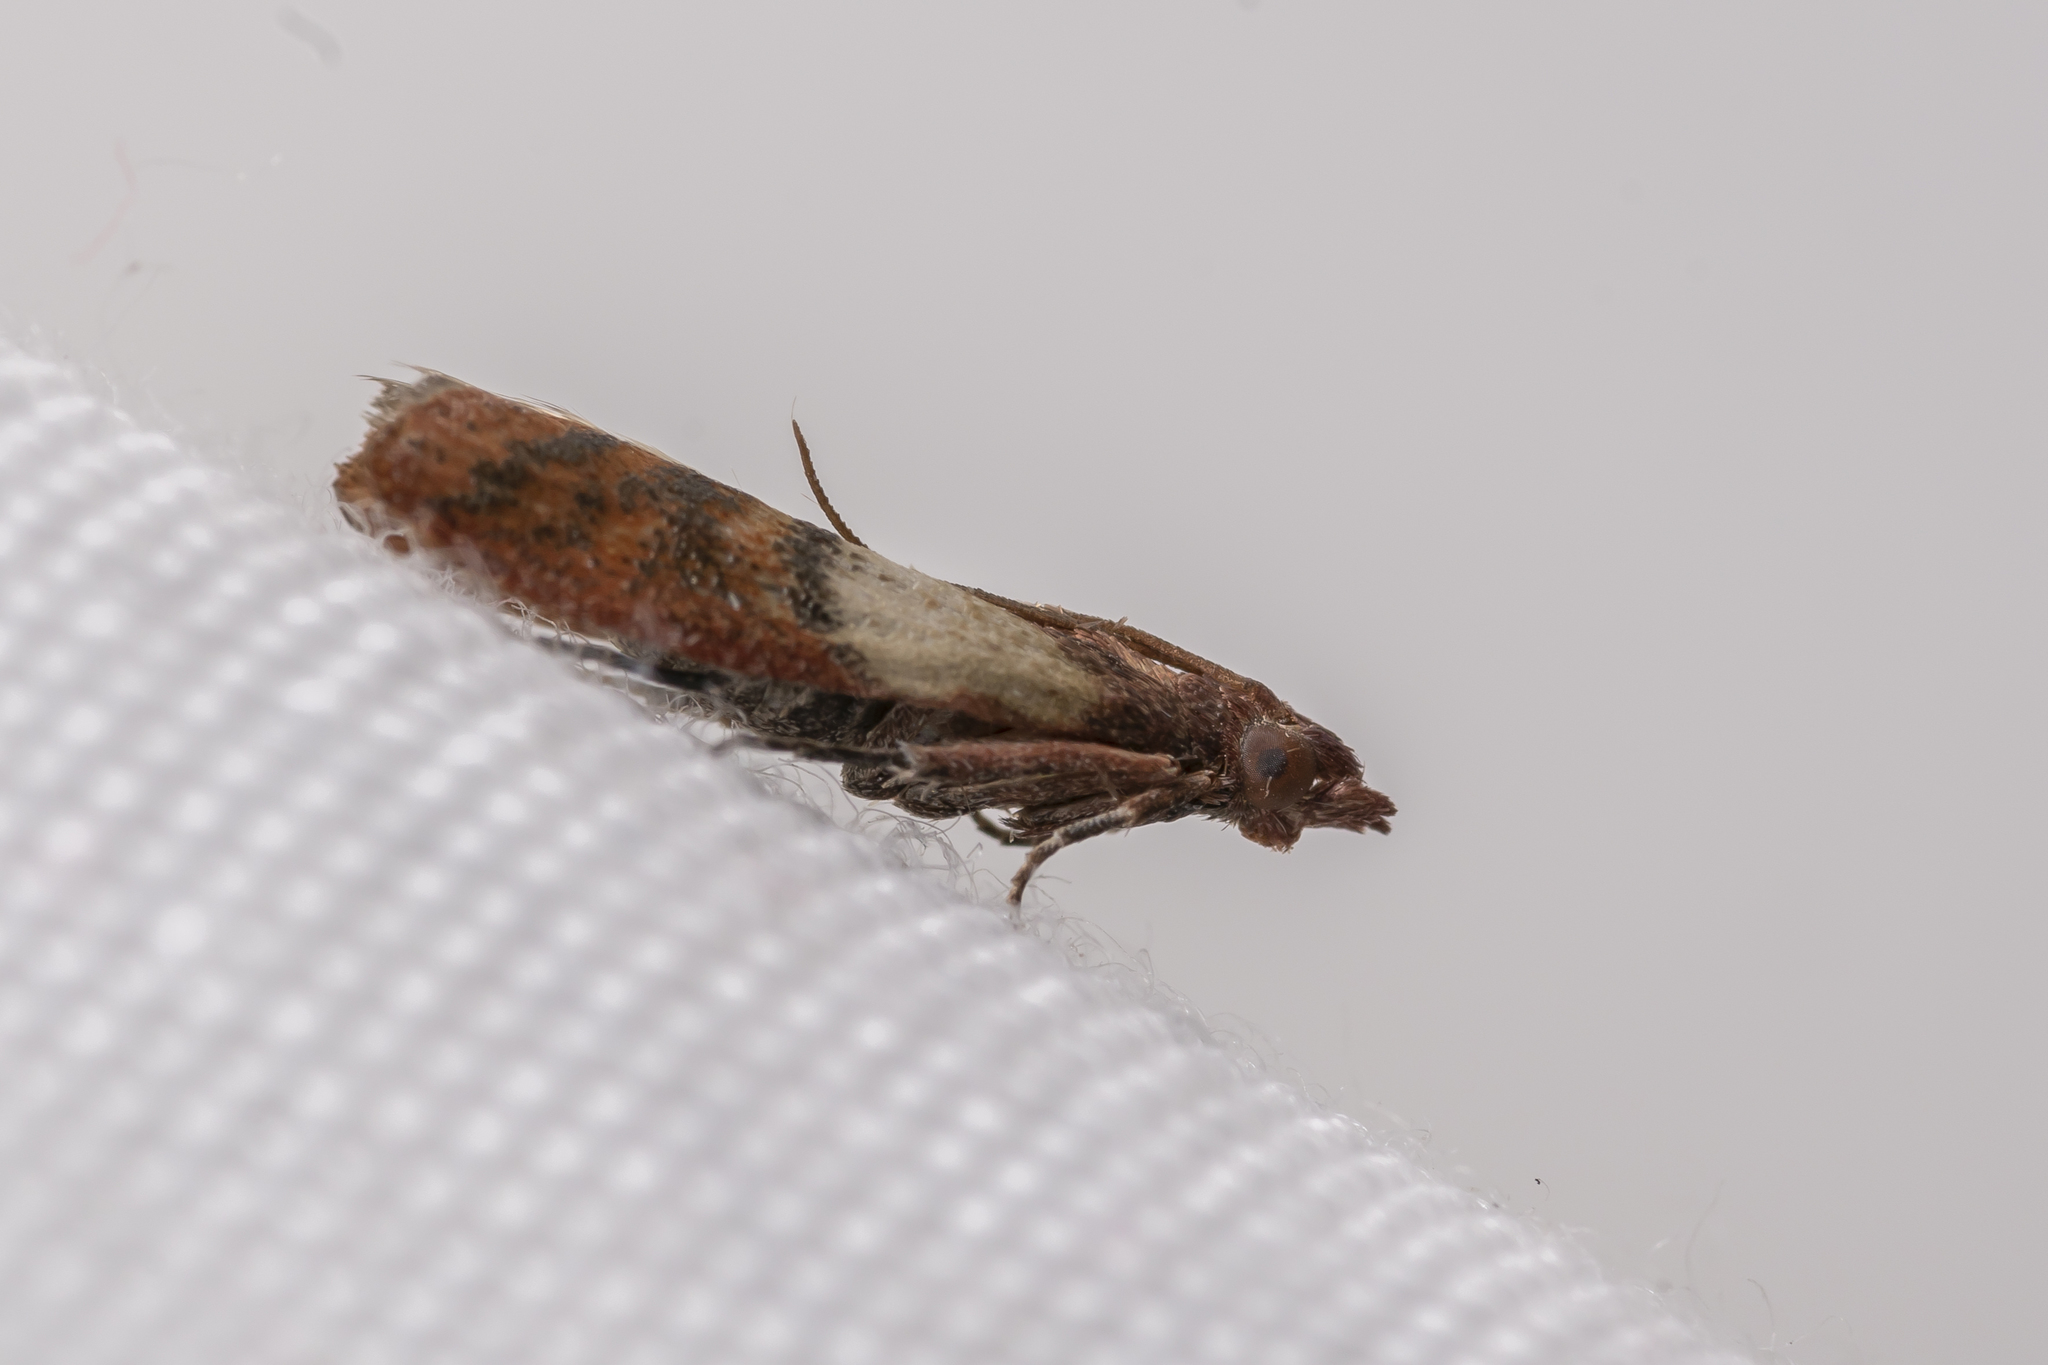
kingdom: Animalia
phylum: Arthropoda
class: Insecta
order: Lepidoptera
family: Pyralidae
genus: Plodia
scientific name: Plodia interpunctella
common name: Indian meal moth
